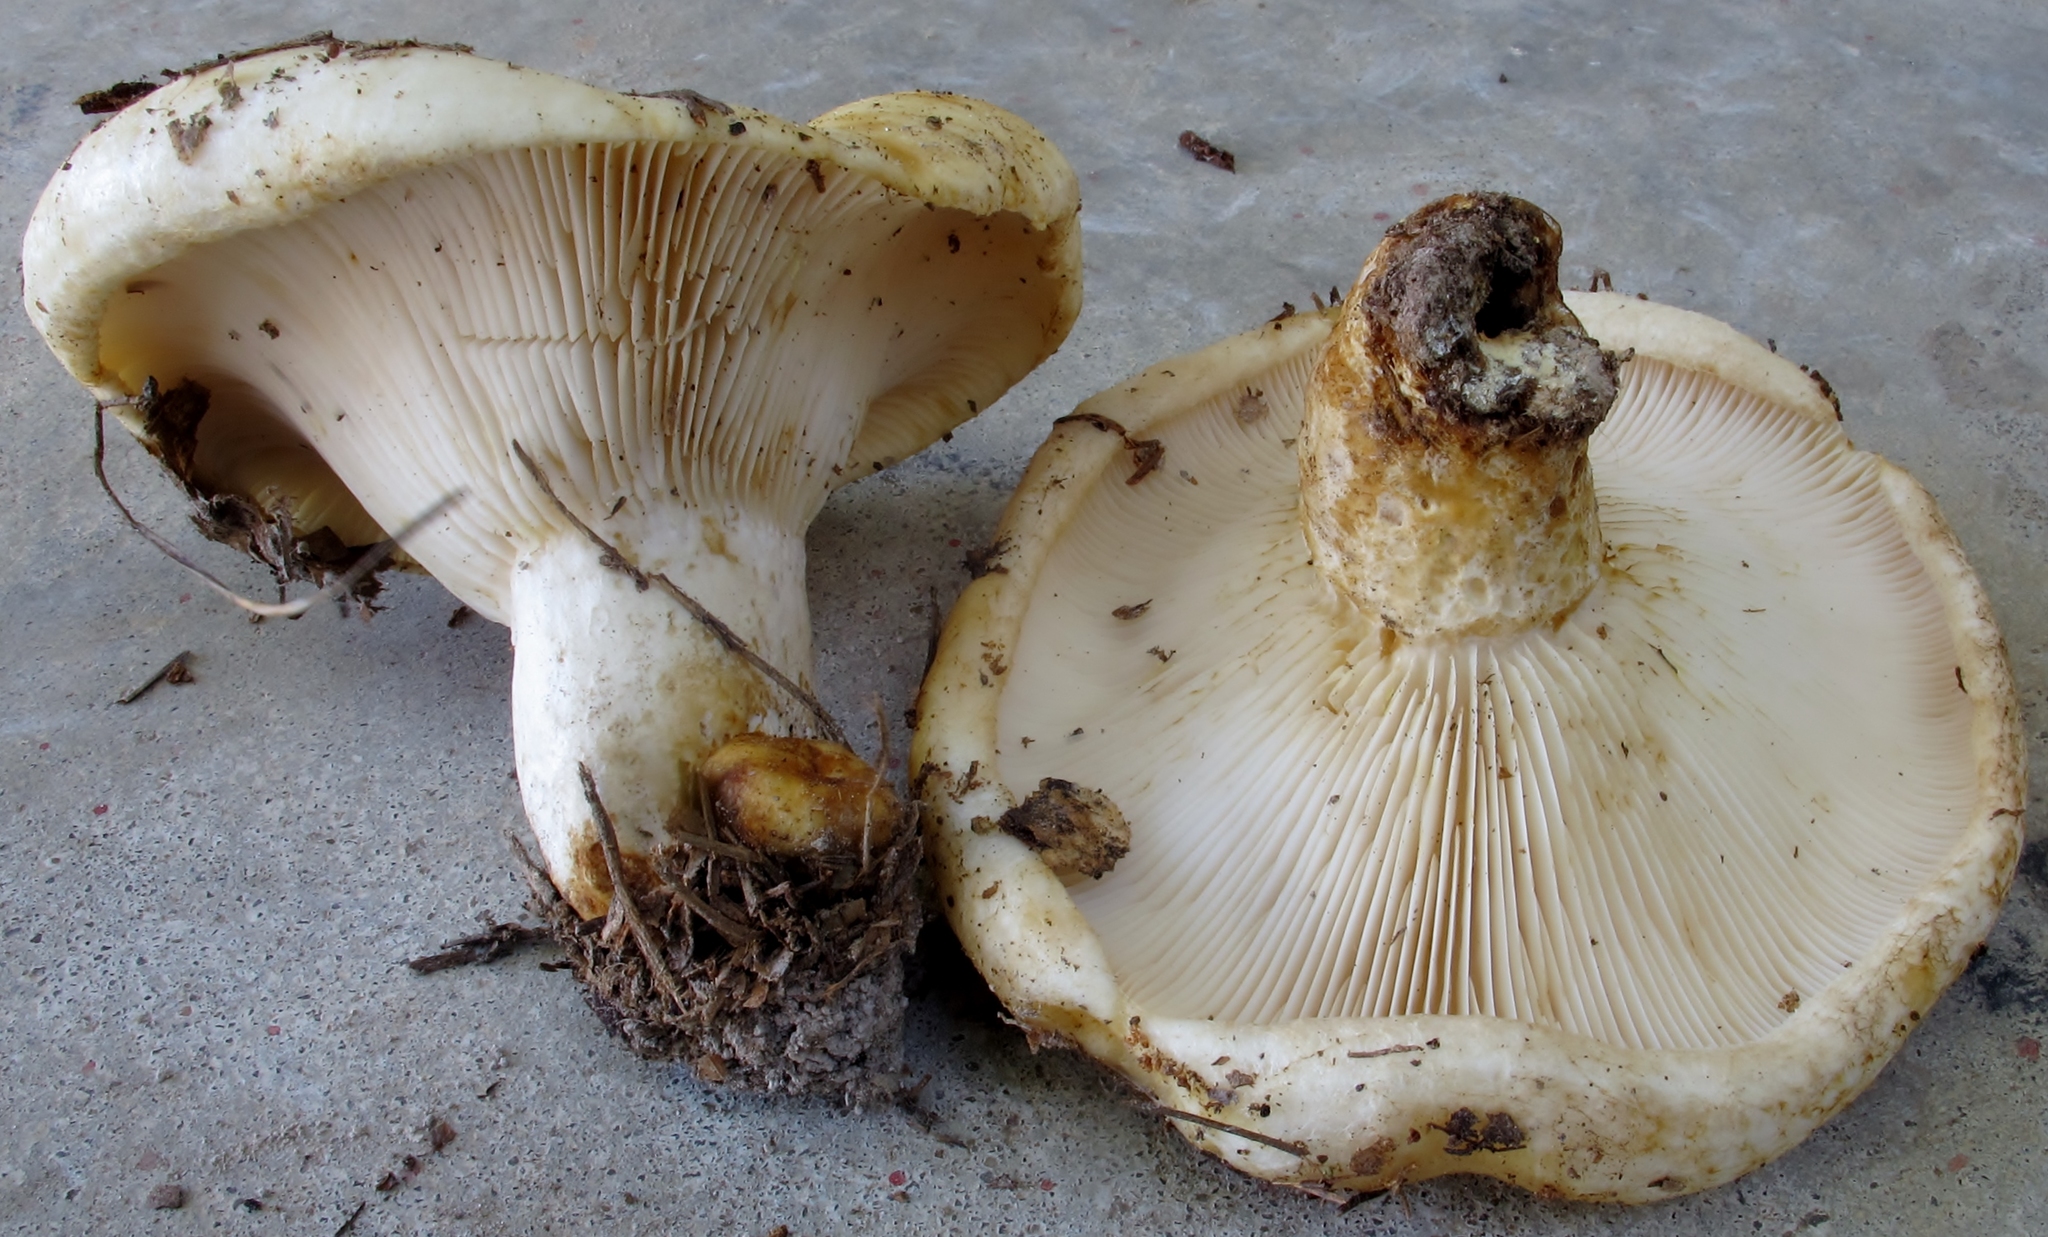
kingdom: Fungi
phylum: Basidiomycota
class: Agaricomycetes
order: Russulales
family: Russulaceae
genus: Lactarius
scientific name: Lactarius resimus
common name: Rollrim milkcap
